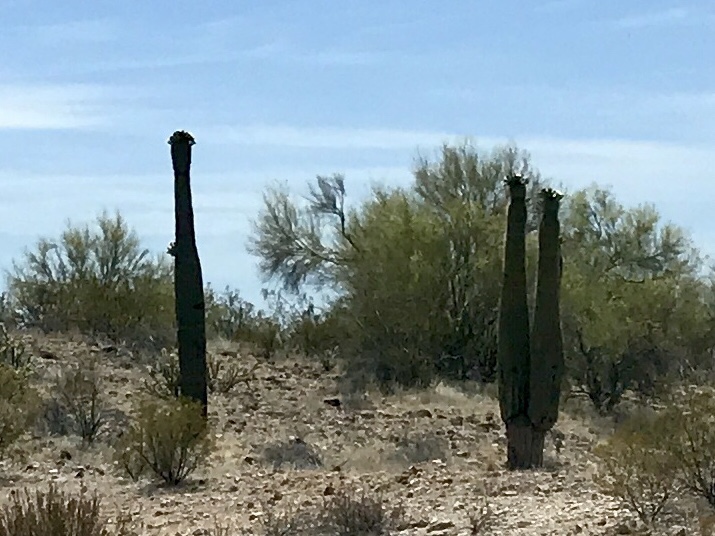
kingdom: Plantae
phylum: Tracheophyta
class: Magnoliopsida
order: Caryophyllales
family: Cactaceae
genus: Carnegiea
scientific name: Carnegiea gigantea
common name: Saguaro
